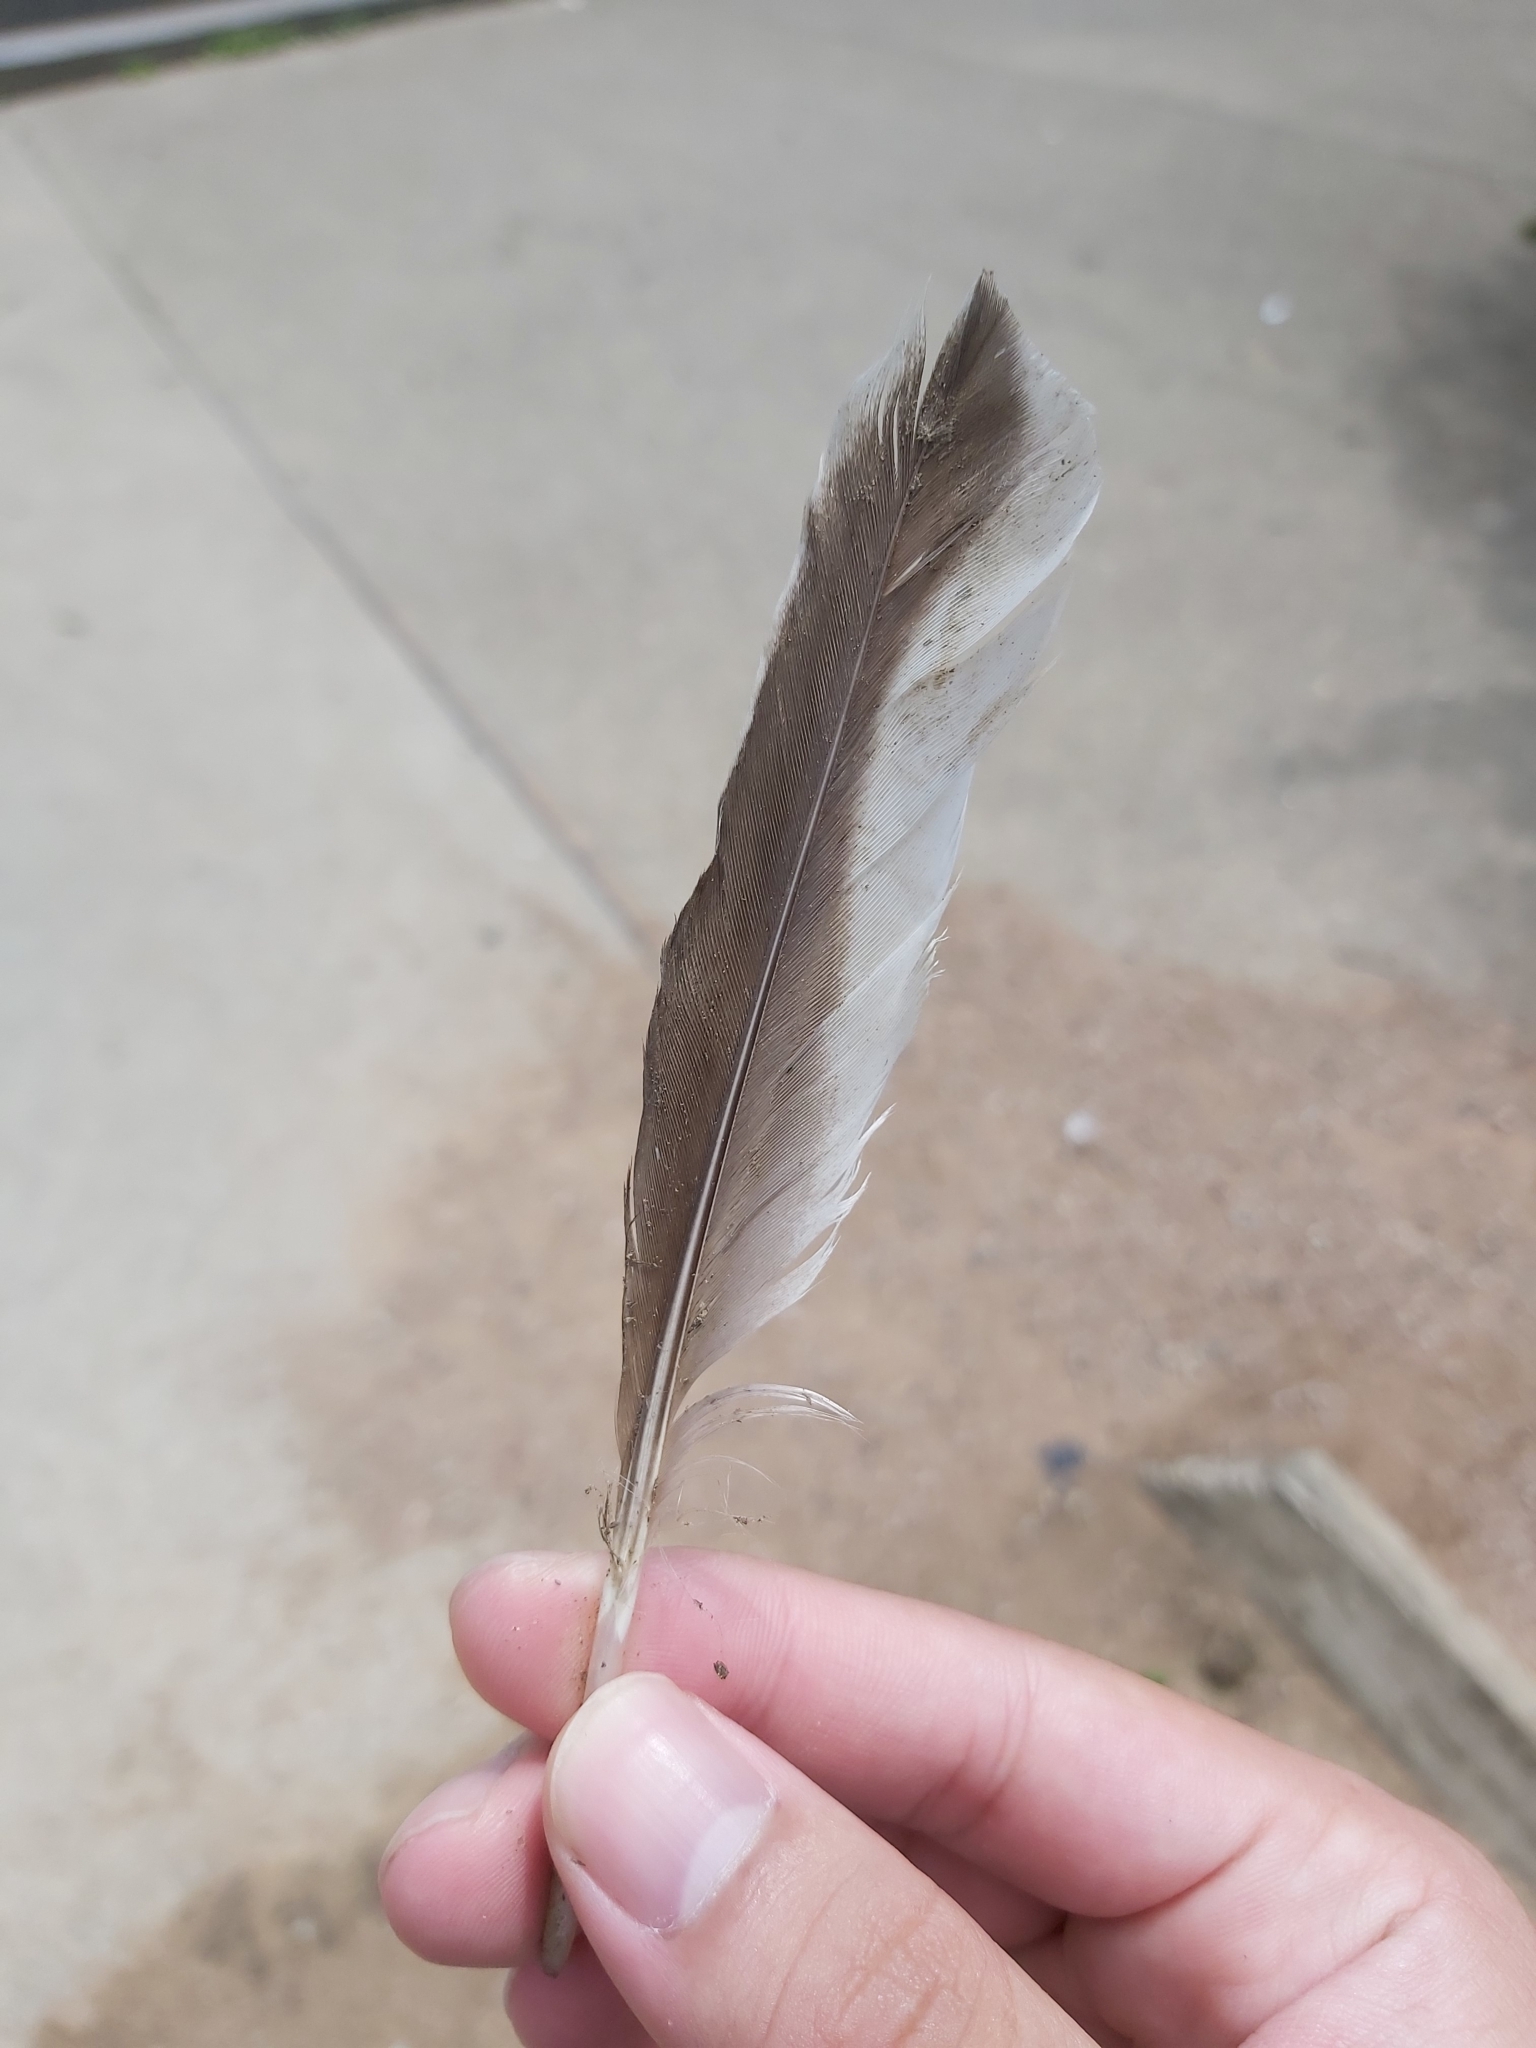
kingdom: Animalia
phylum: Chordata
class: Aves
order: Anseriformes
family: Anatidae
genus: Malacorhynchus
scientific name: Malacorhynchus membranaceus
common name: Pink-eared duck
